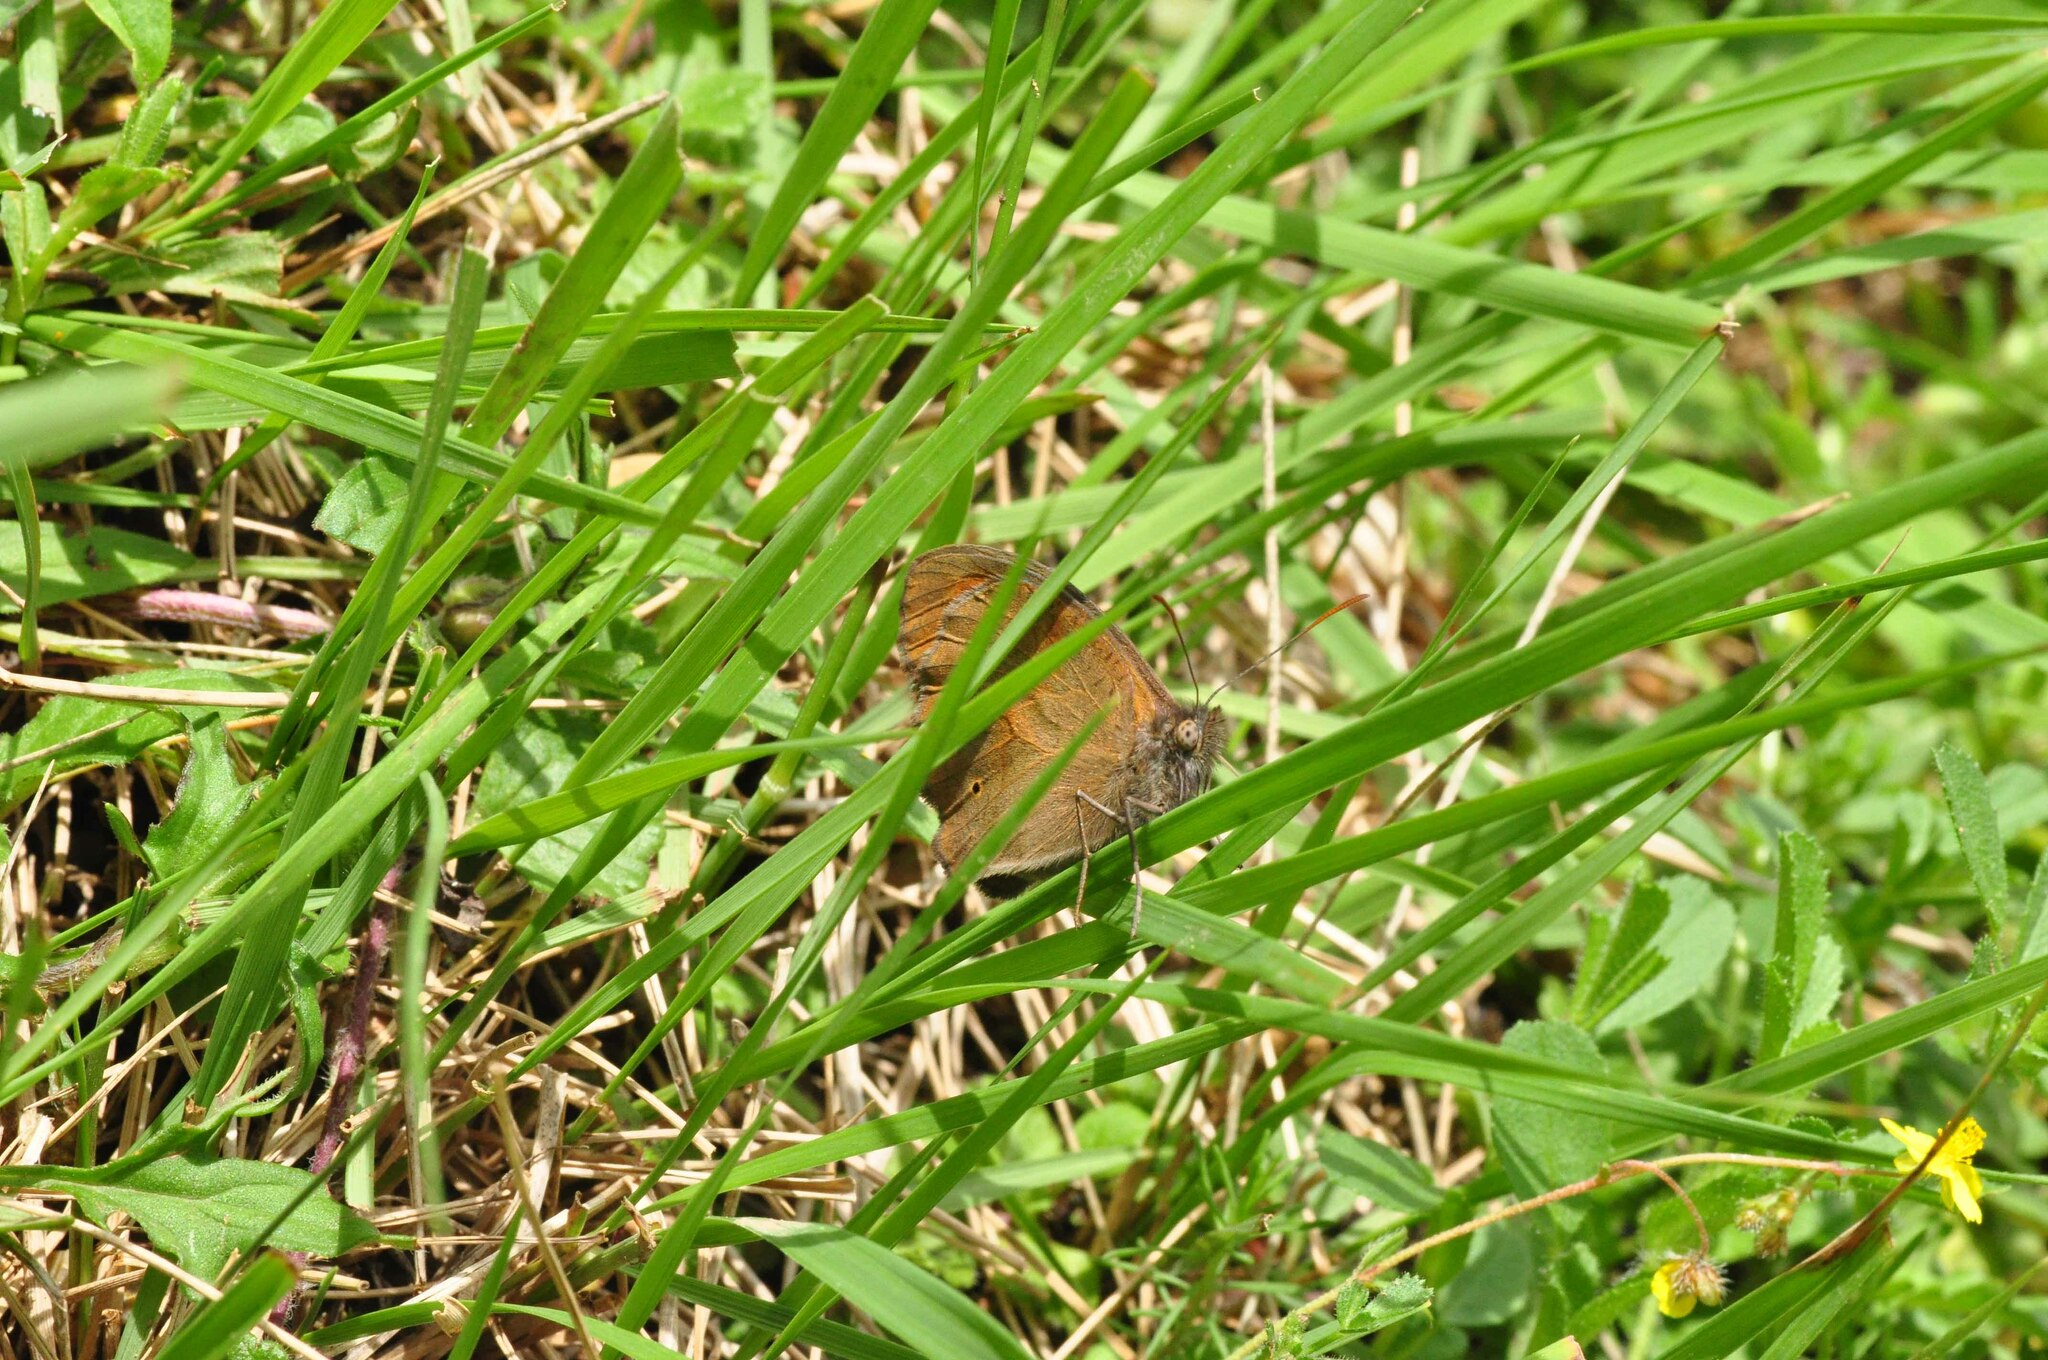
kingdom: Animalia
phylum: Arthropoda
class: Insecta
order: Lepidoptera
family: Nymphalidae
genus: Maniola
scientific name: Maniola jurtina
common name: Meadow brown
